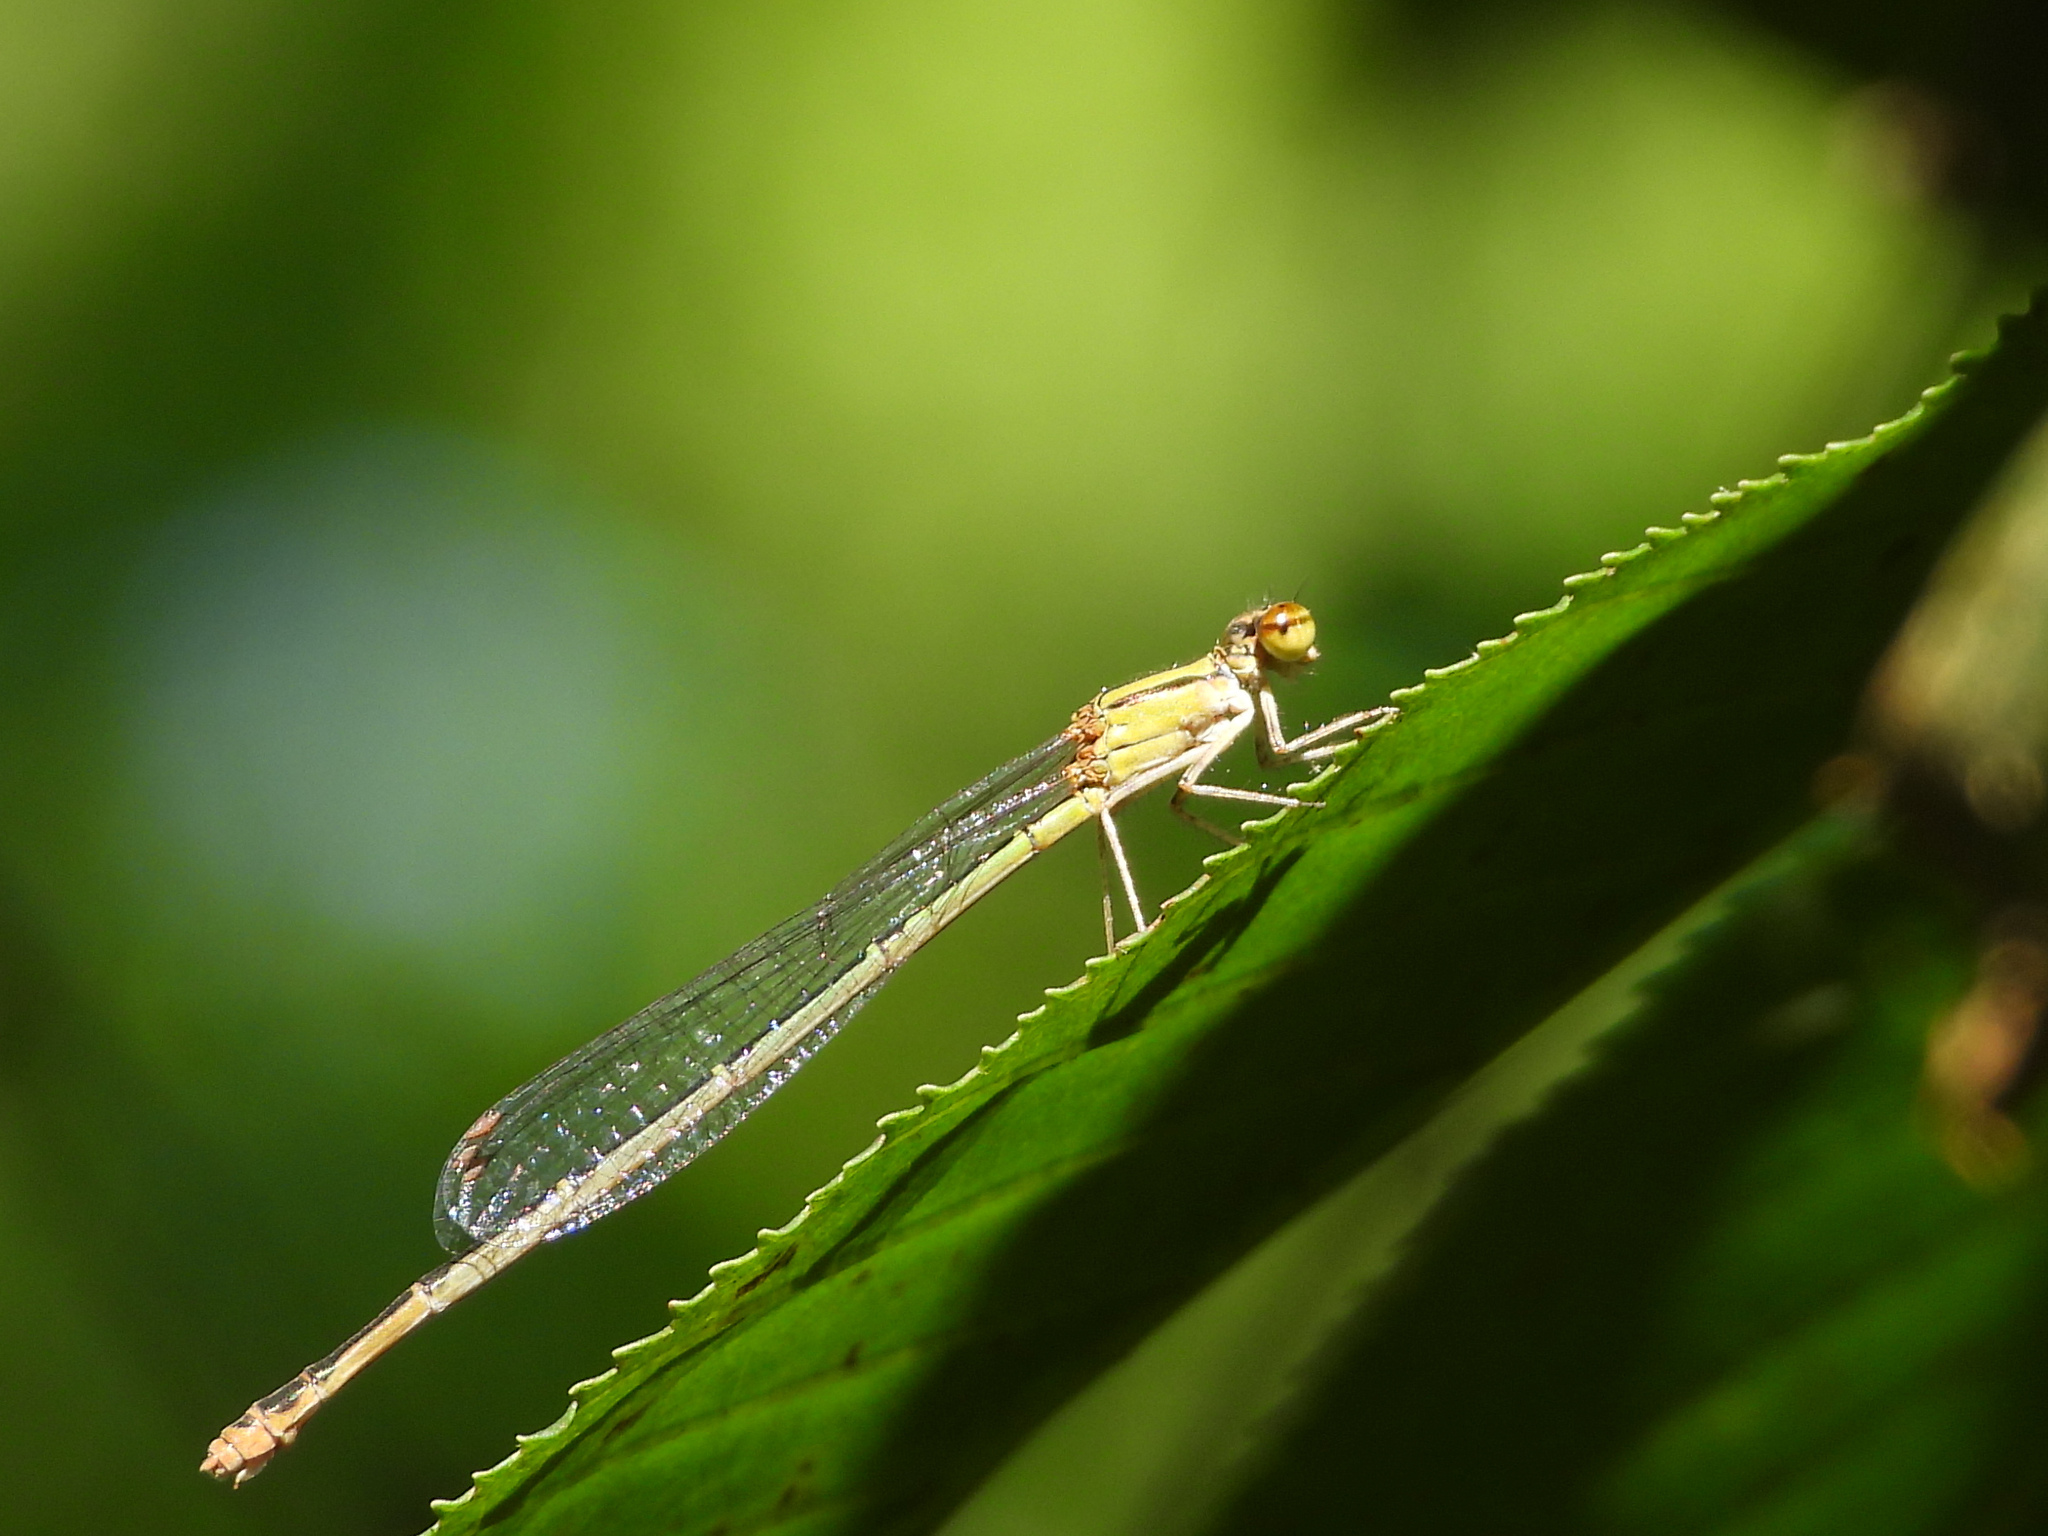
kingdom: Animalia
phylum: Arthropoda
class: Insecta
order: Odonata
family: Coenagrionidae
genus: Enallagma
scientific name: Enallagma signatum
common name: Orange bluet
